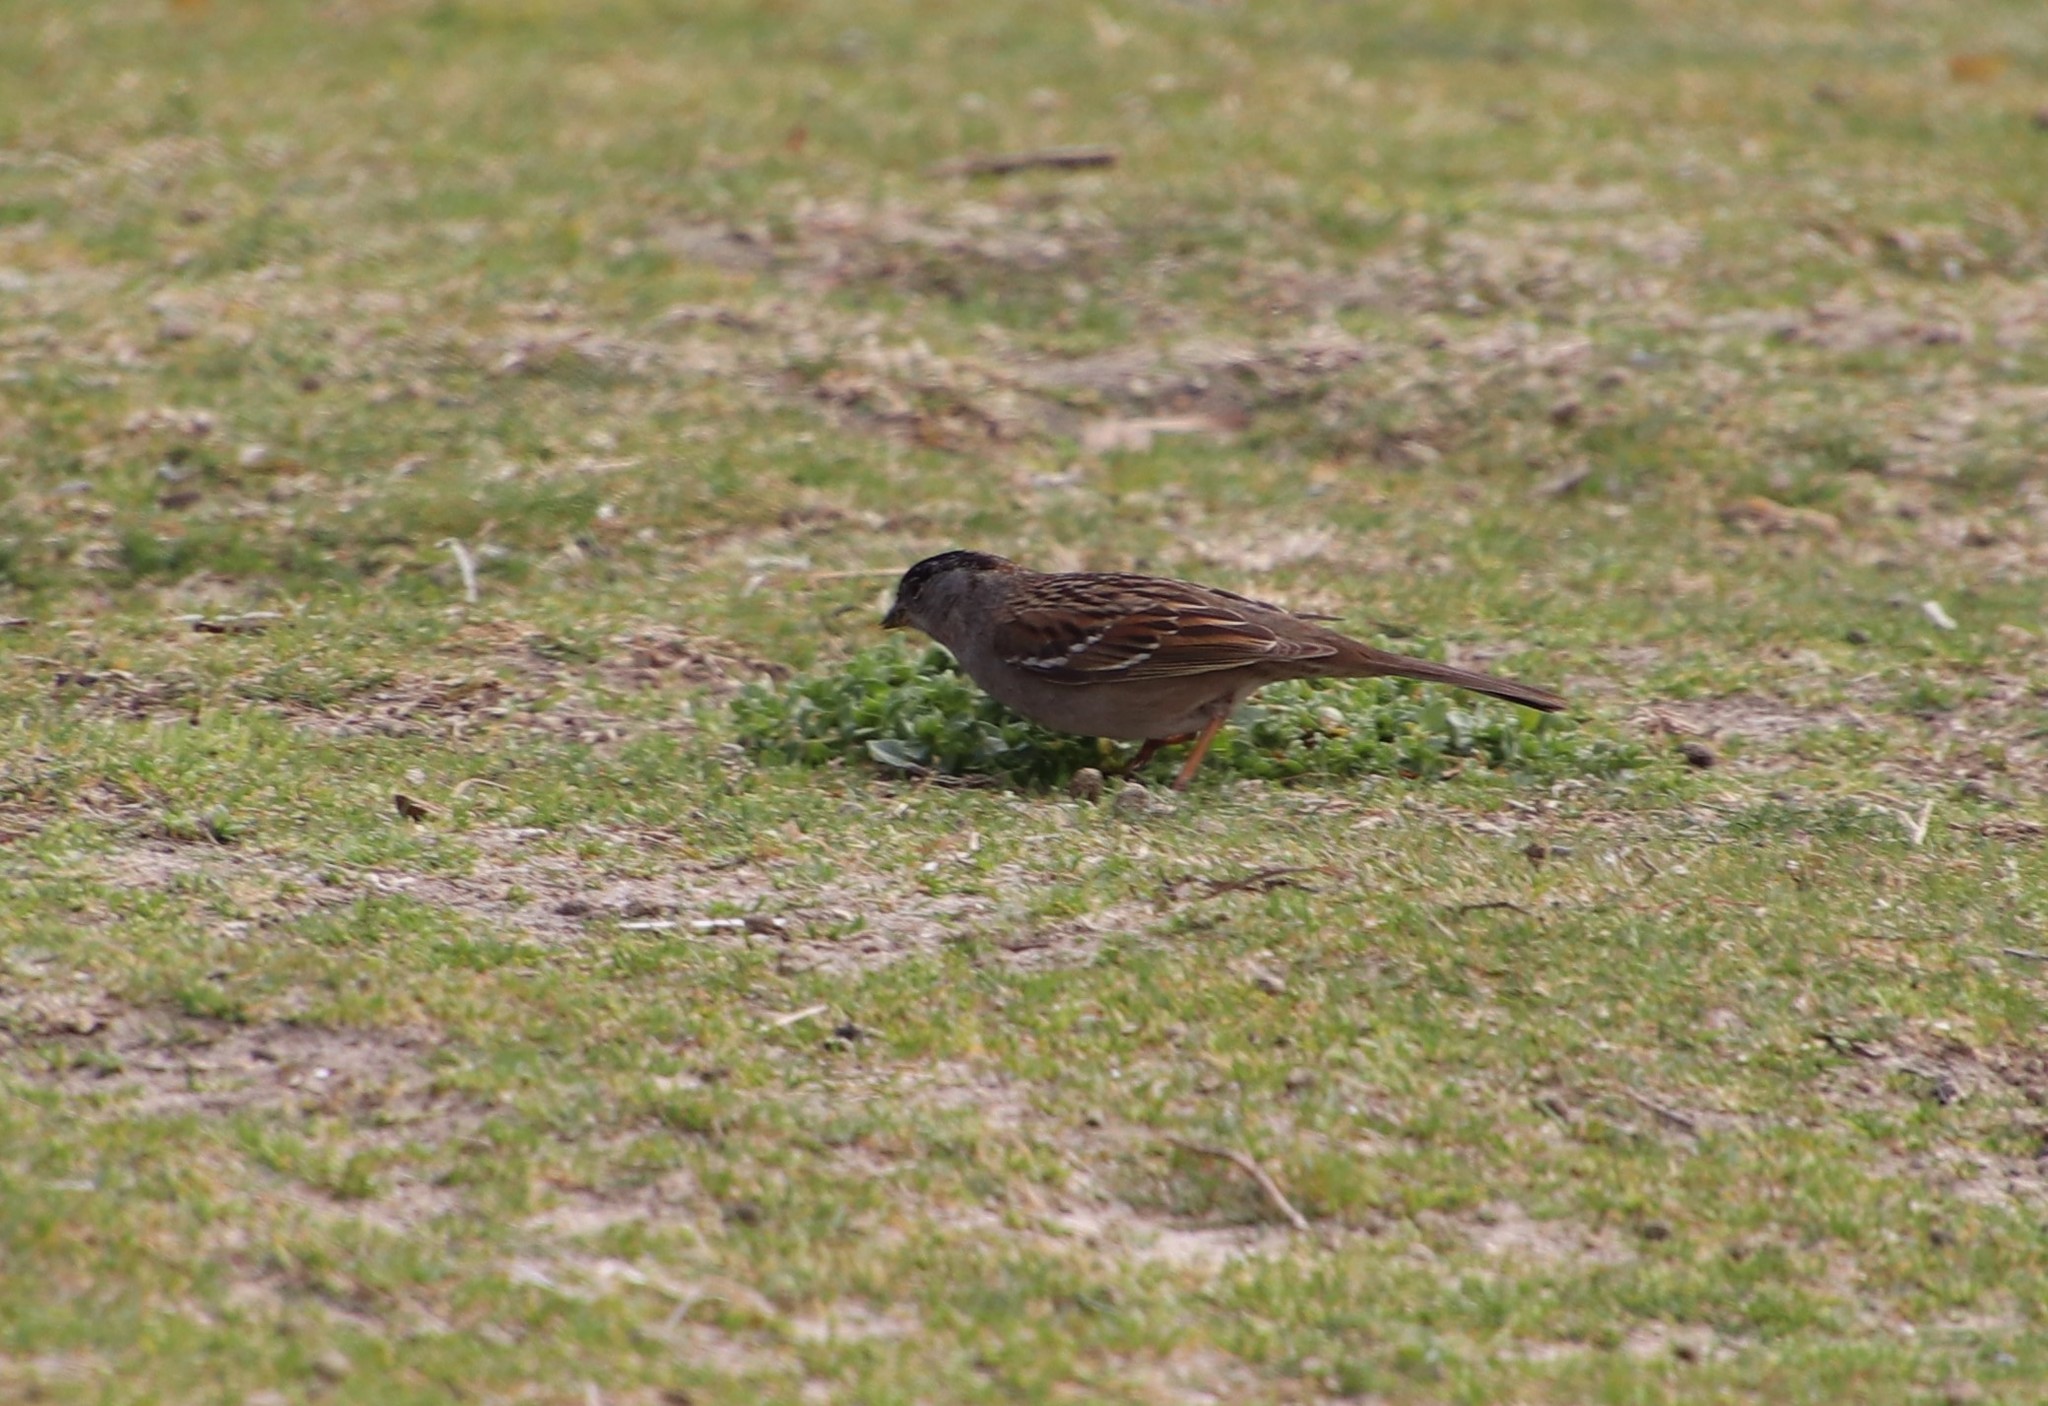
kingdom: Animalia
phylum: Chordata
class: Aves
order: Passeriformes
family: Passerellidae
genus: Zonotrichia
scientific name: Zonotrichia atricapilla
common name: Golden-crowned sparrow
